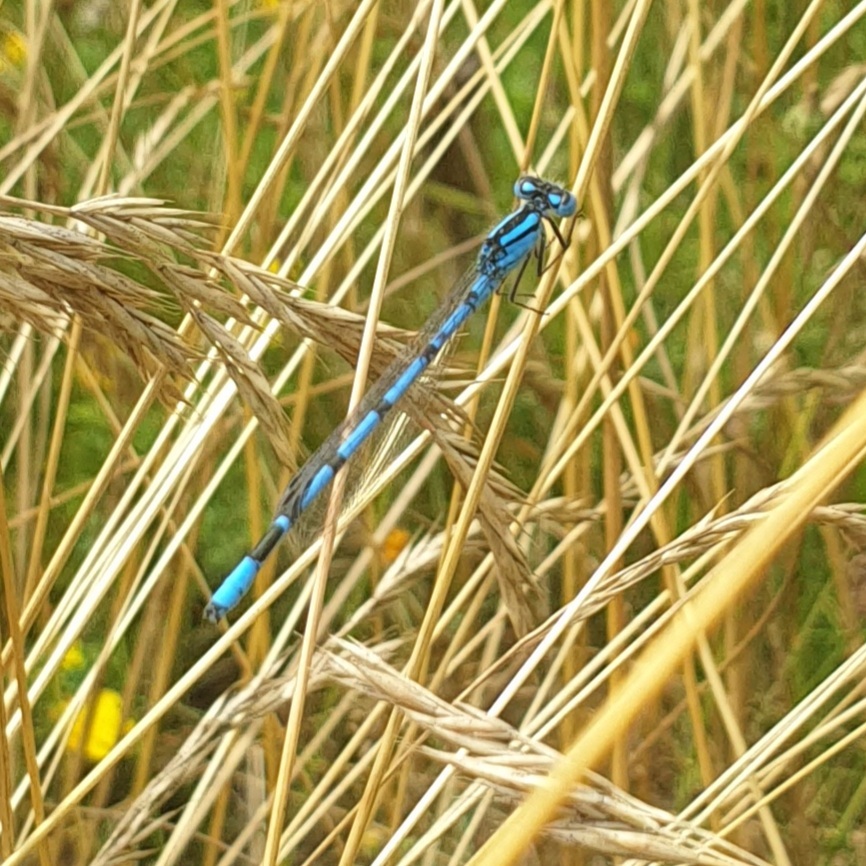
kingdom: Animalia
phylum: Arthropoda
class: Insecta
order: Odonata
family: Coenagrionidae
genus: Enallagma
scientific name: Enallagma cyathigerum
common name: Common blue damselfly
